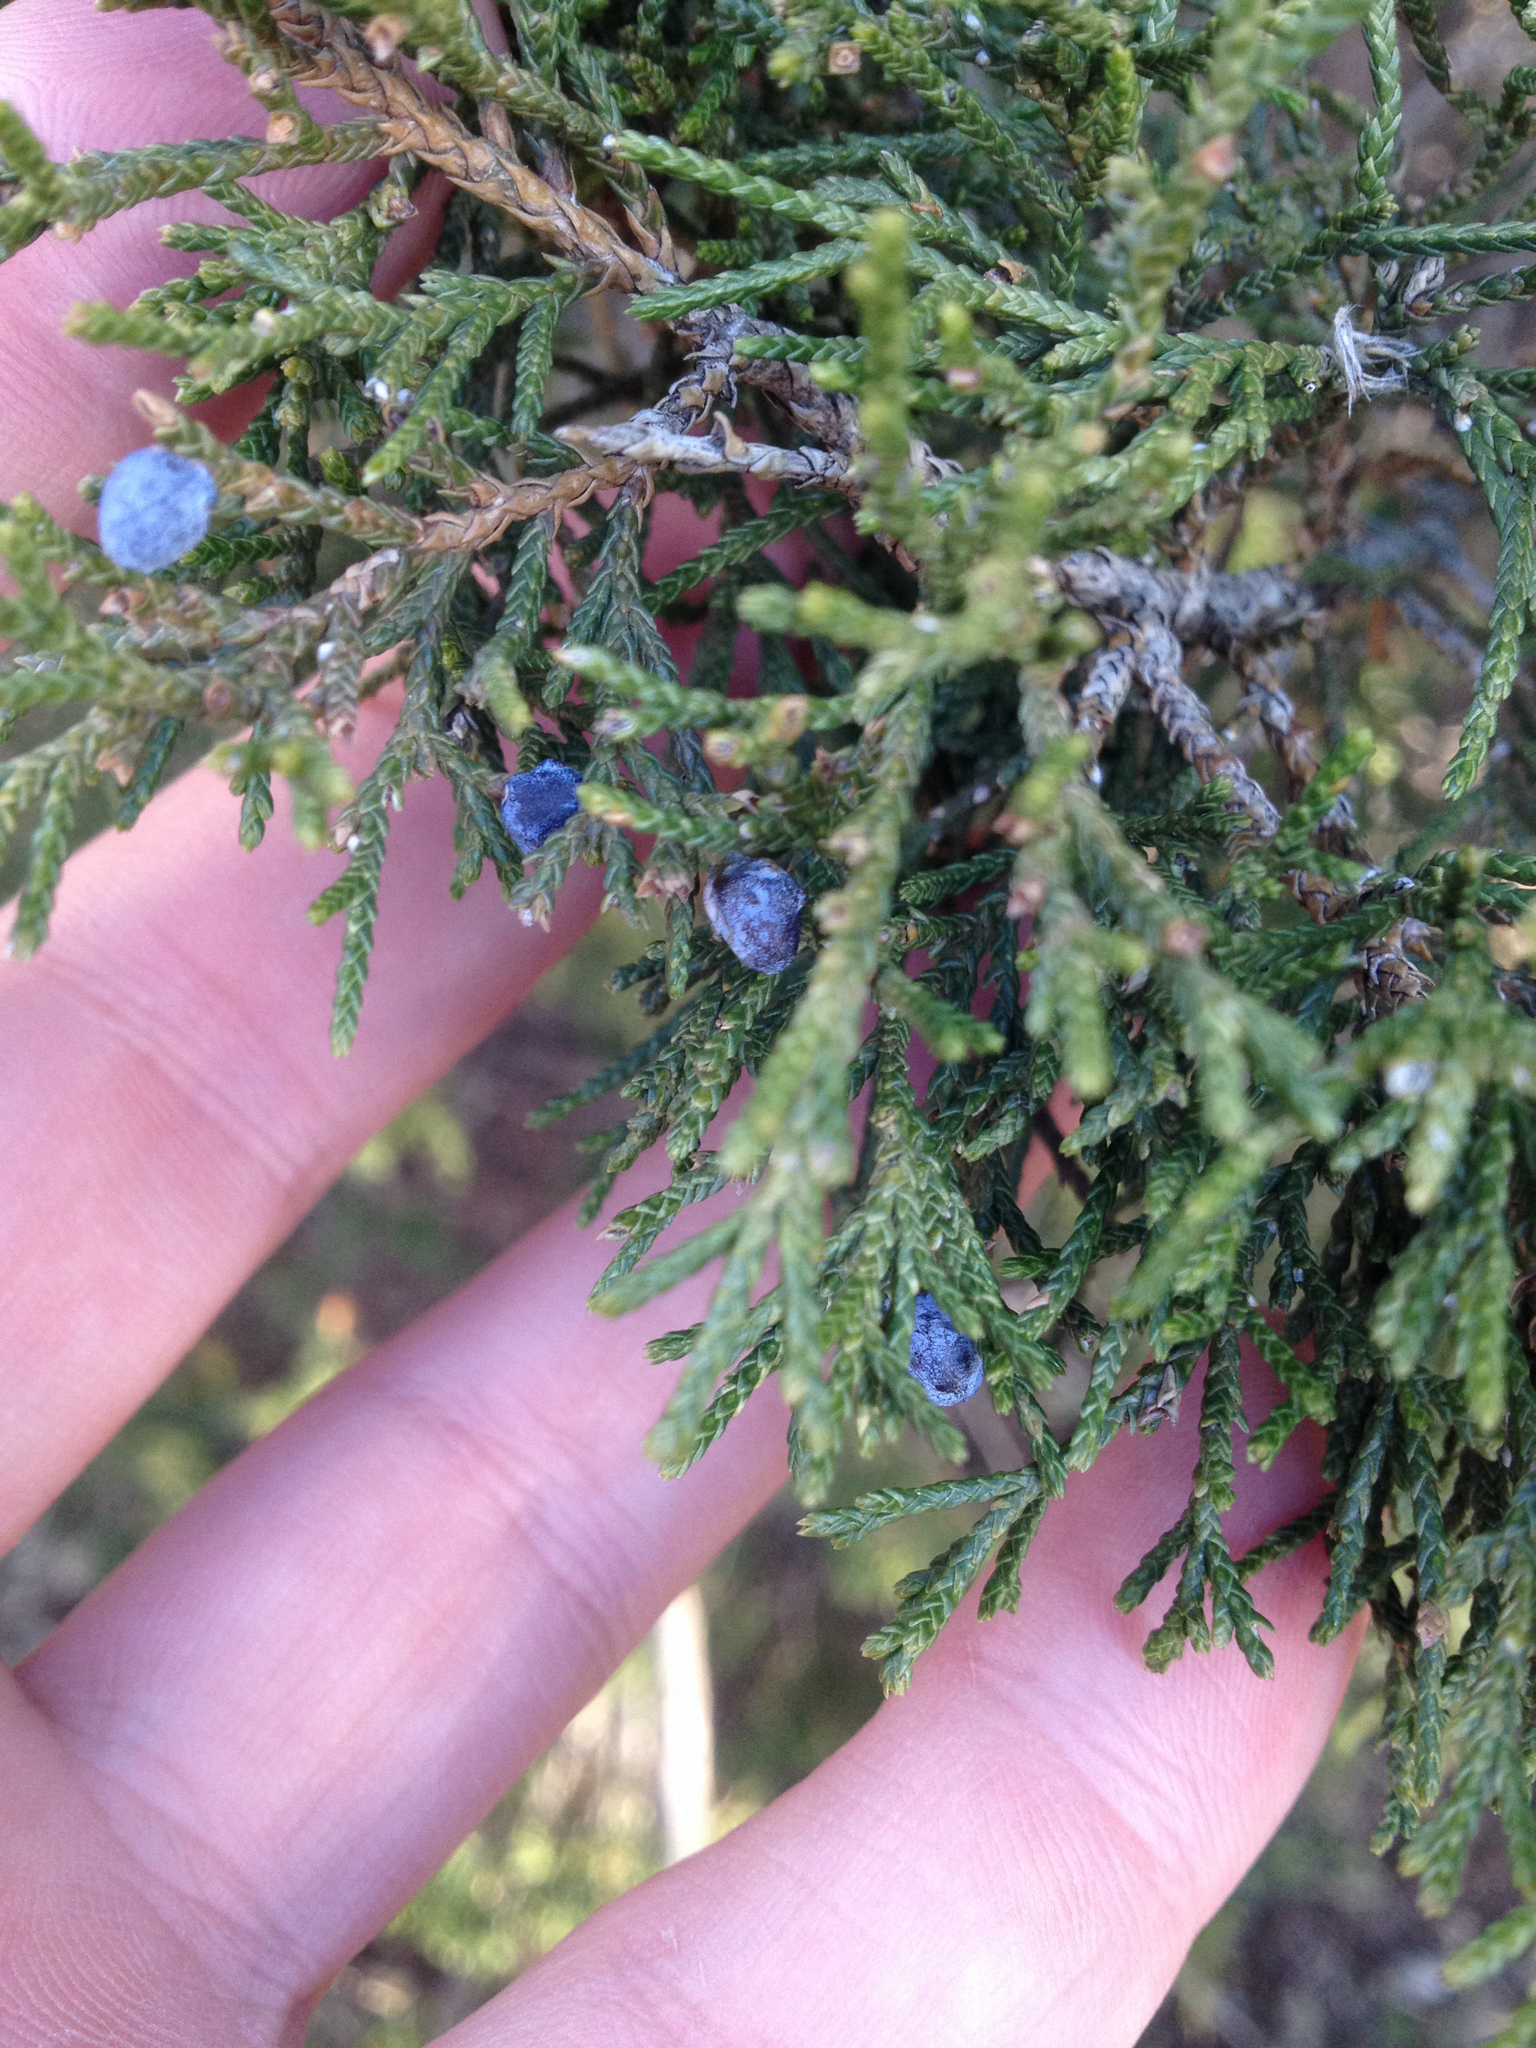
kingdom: Plantae
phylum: Tracheophyta
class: Pinopsida
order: Pinales
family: Cupressaceae
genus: Juniperus
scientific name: Juniperus virginiana
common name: Red juniper
